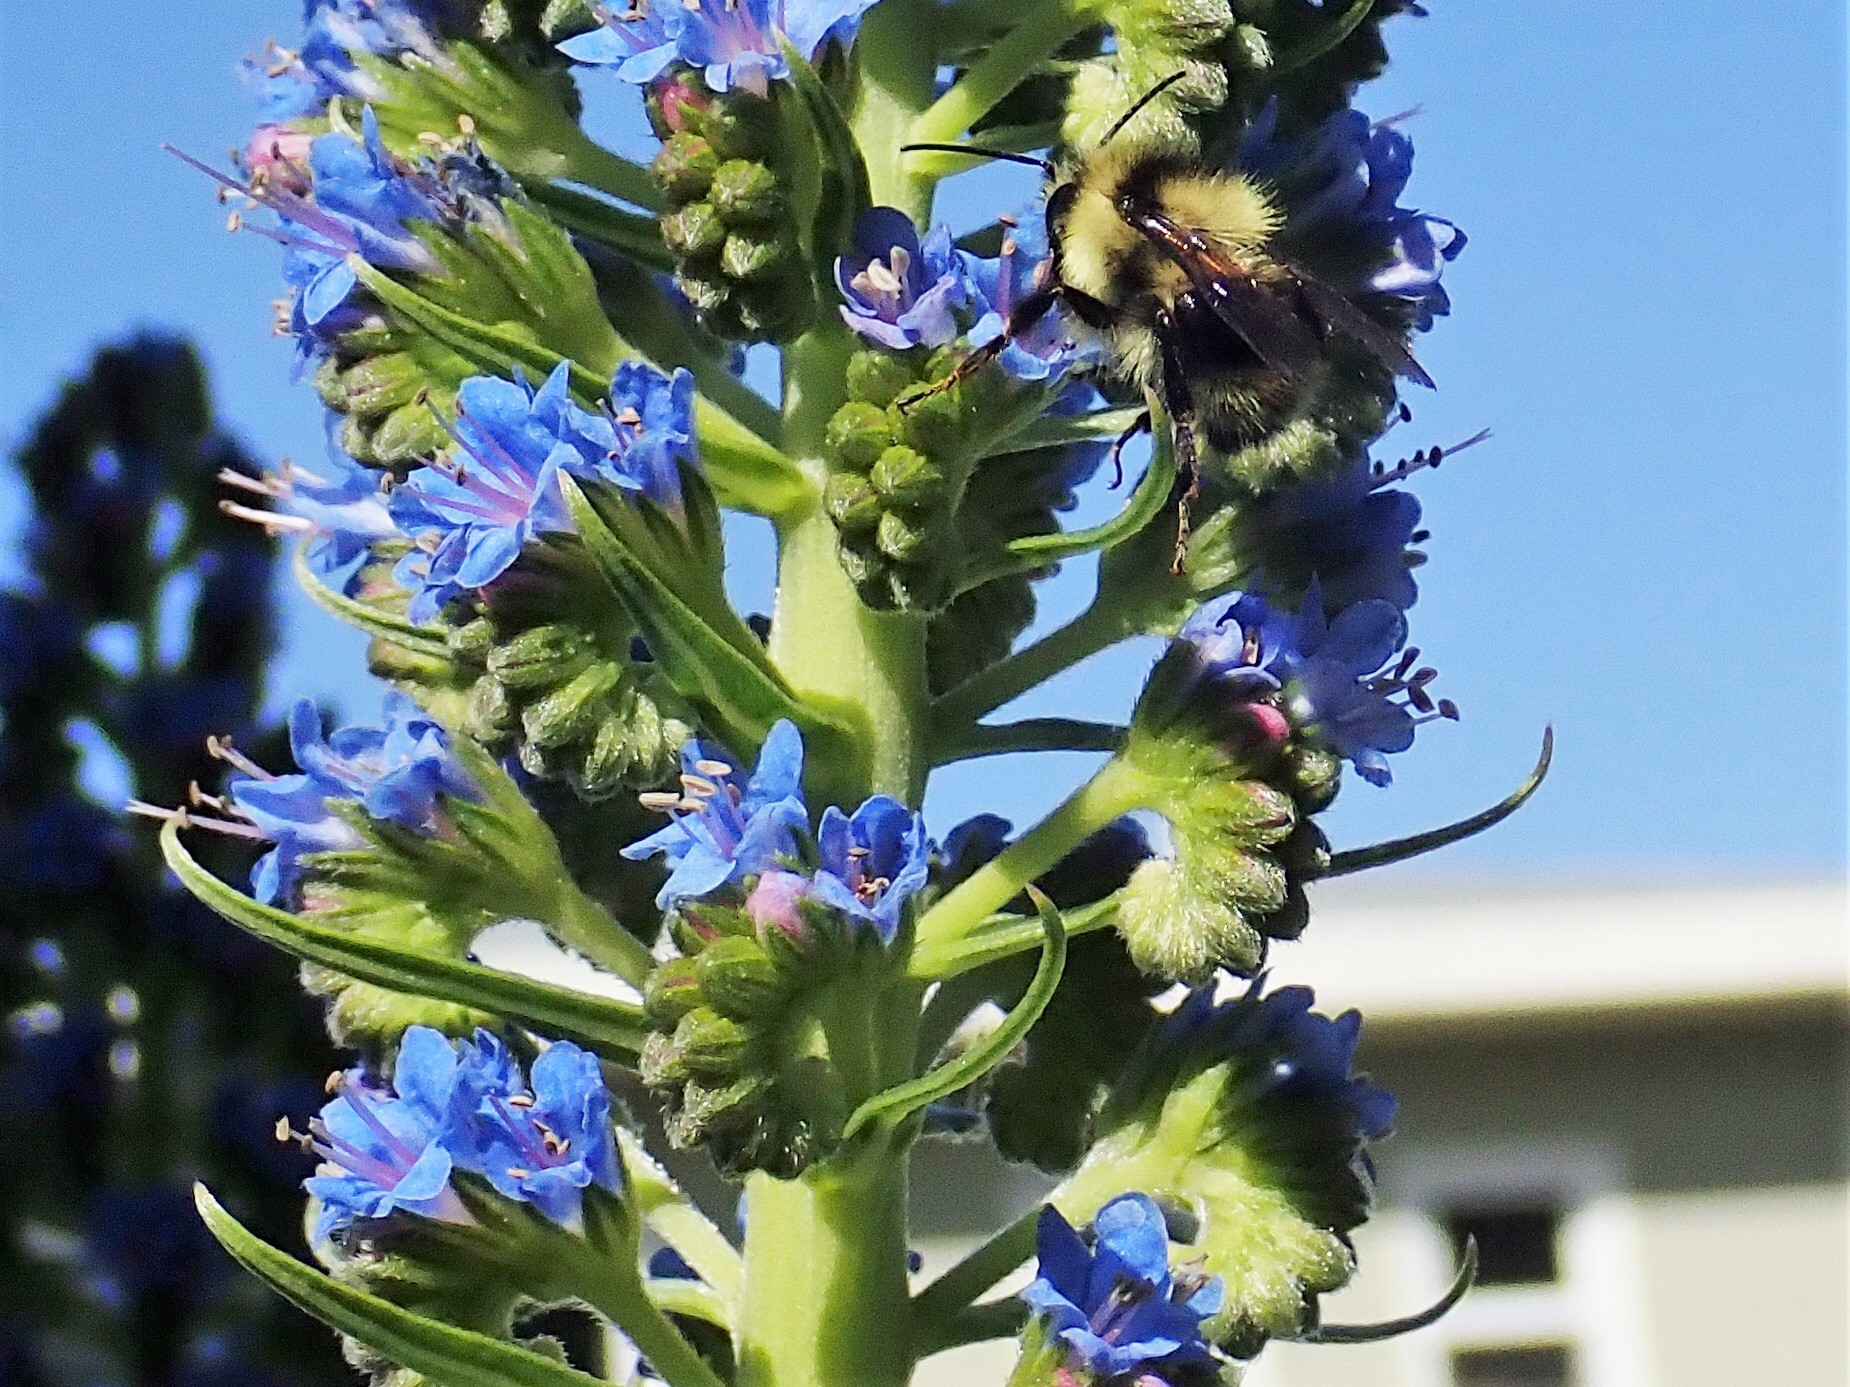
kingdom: Animalia
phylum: Arthropoda
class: Insecta
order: Hymenoptera
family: Apidae
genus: Bombus
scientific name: Bombus melanopygus
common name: Black tail bumble bee
